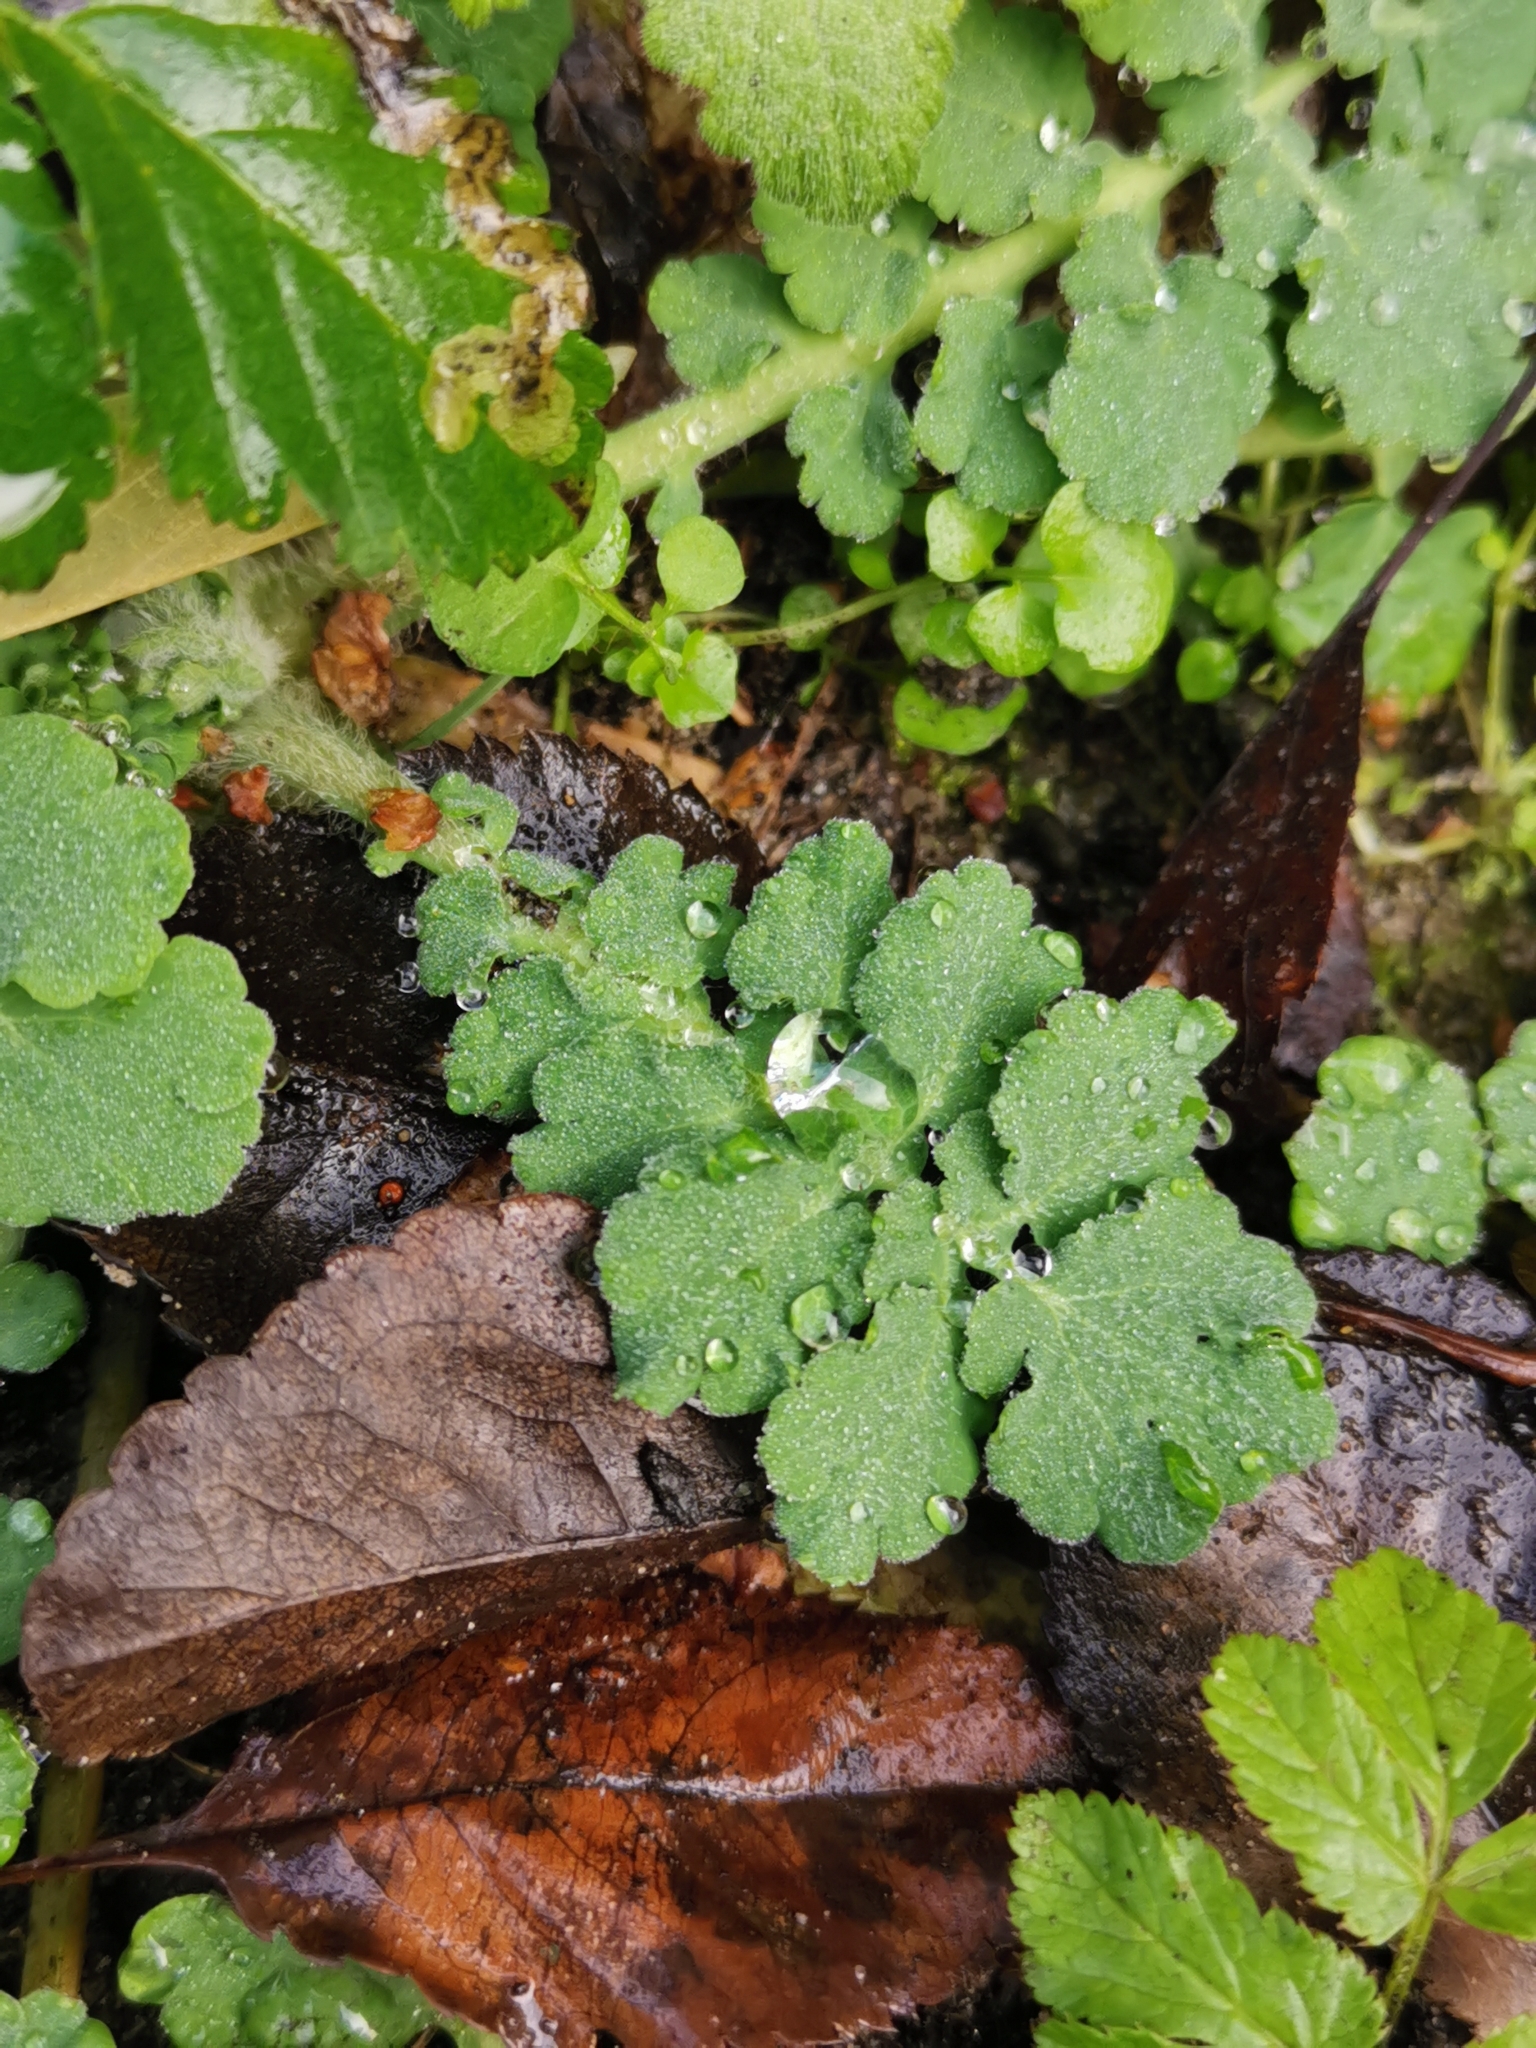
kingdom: Plantae
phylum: Tracheophyta
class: Magnoliopsida
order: Ranunculales
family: Papaveraceae
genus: Chelidonium
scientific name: Chelidonium majus
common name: Greater celandine
